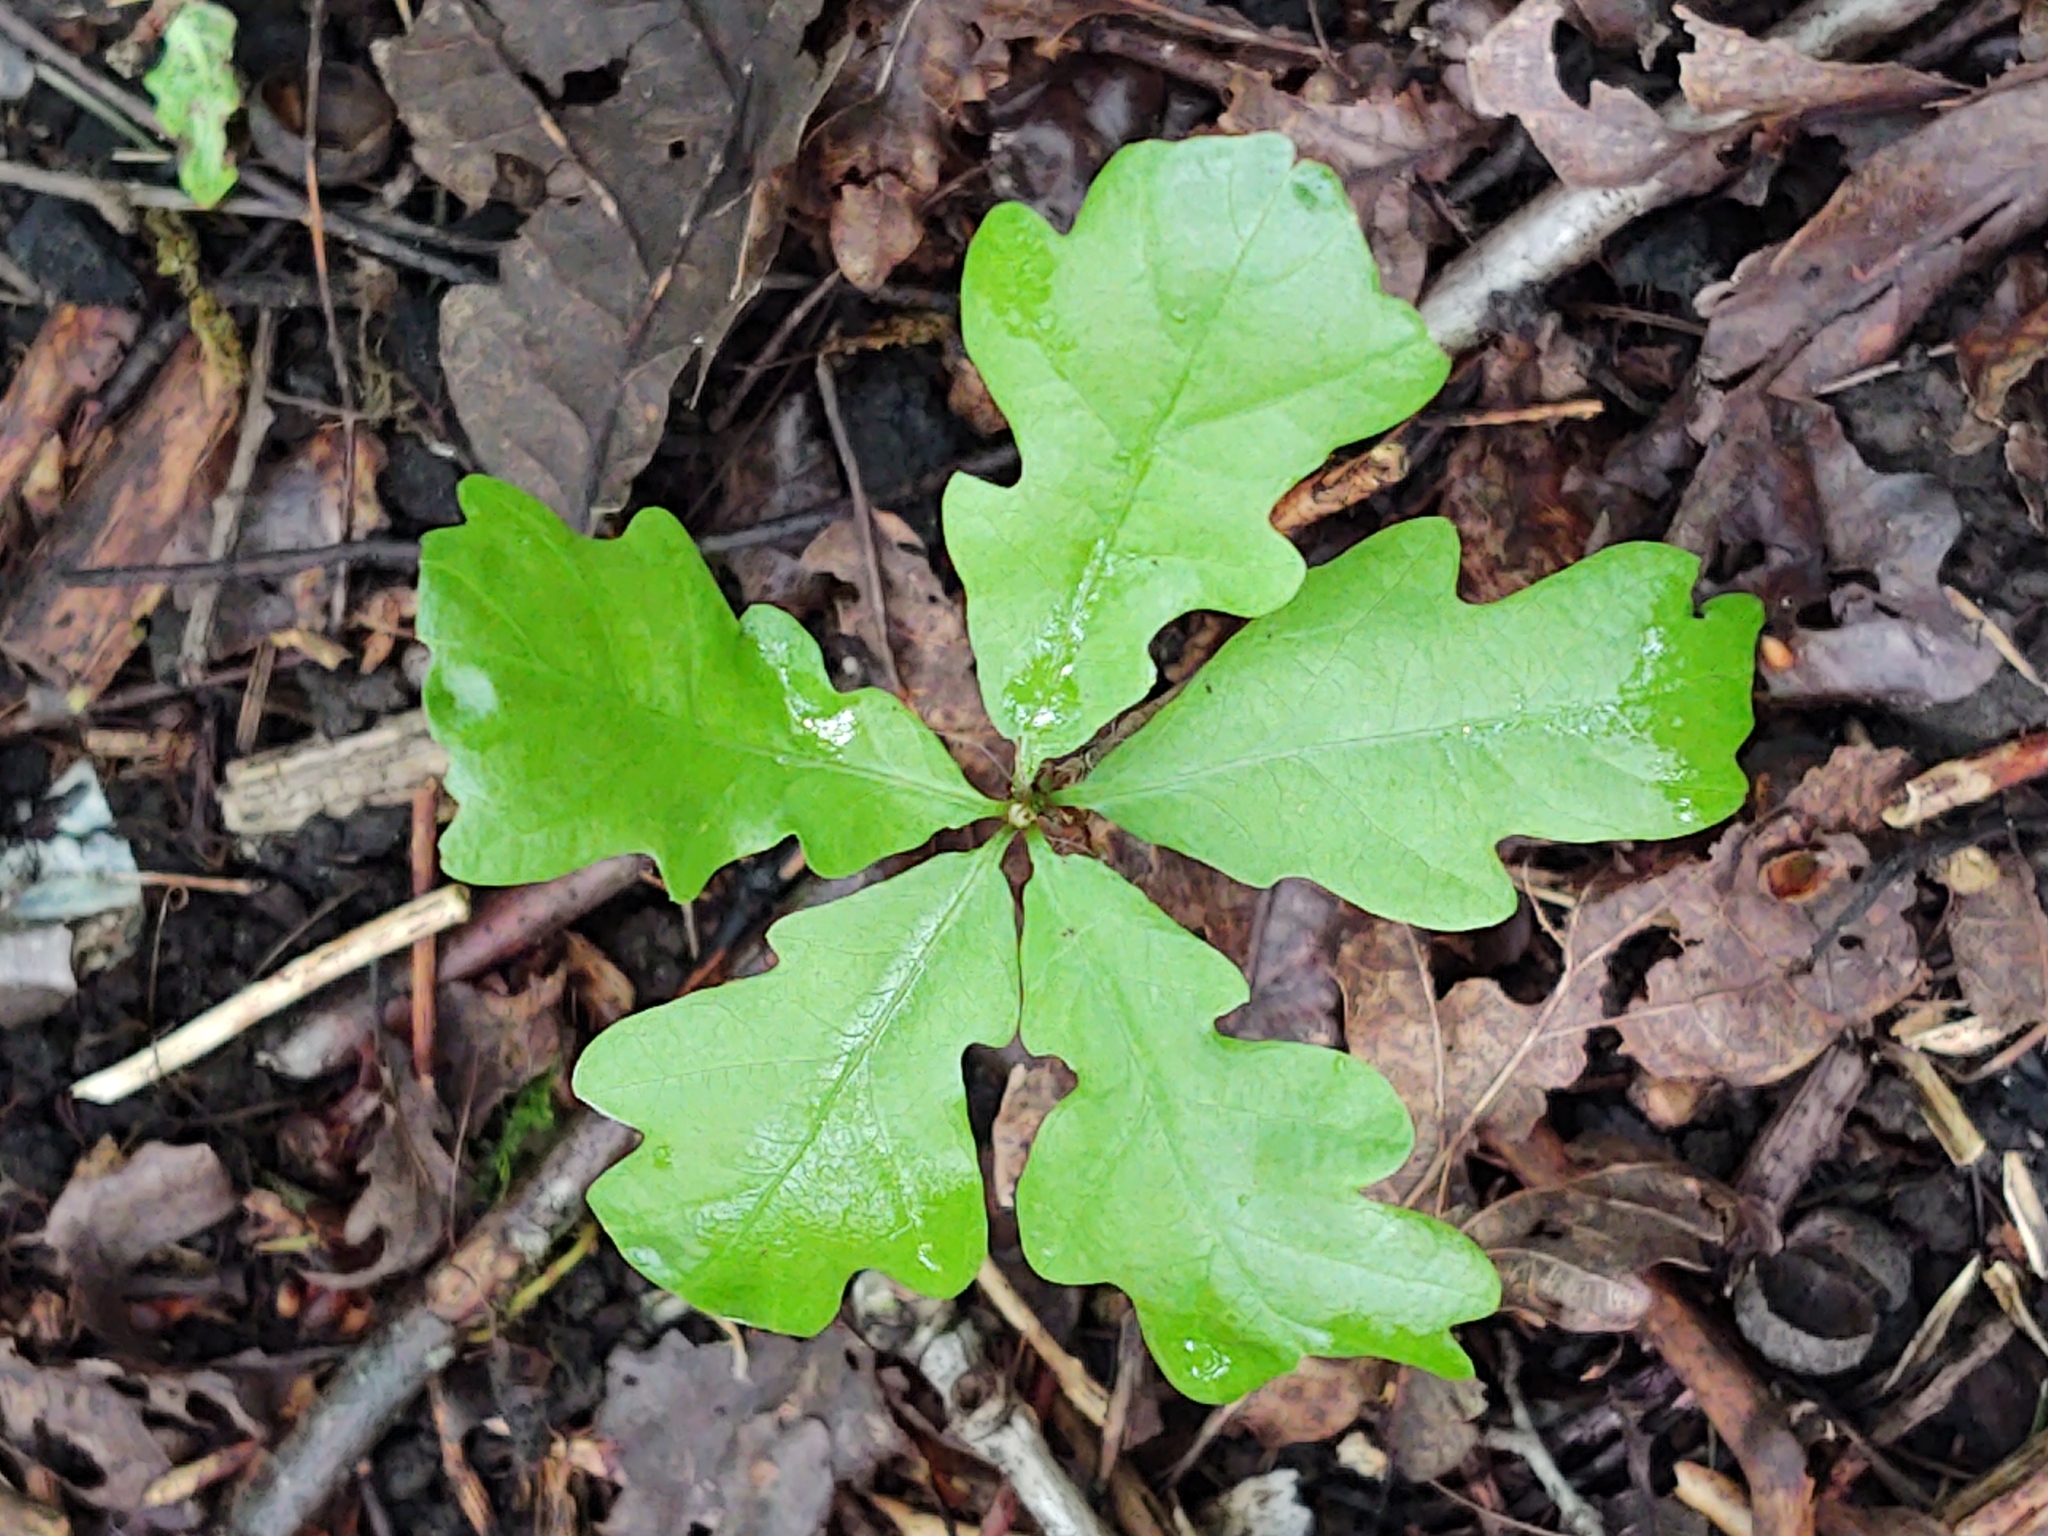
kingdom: Plantae
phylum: Tracheophyta
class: Magnoliopsida
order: Fagales
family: Fagaceae
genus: Quercus
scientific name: Quercus robur
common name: Pedunculate oak
